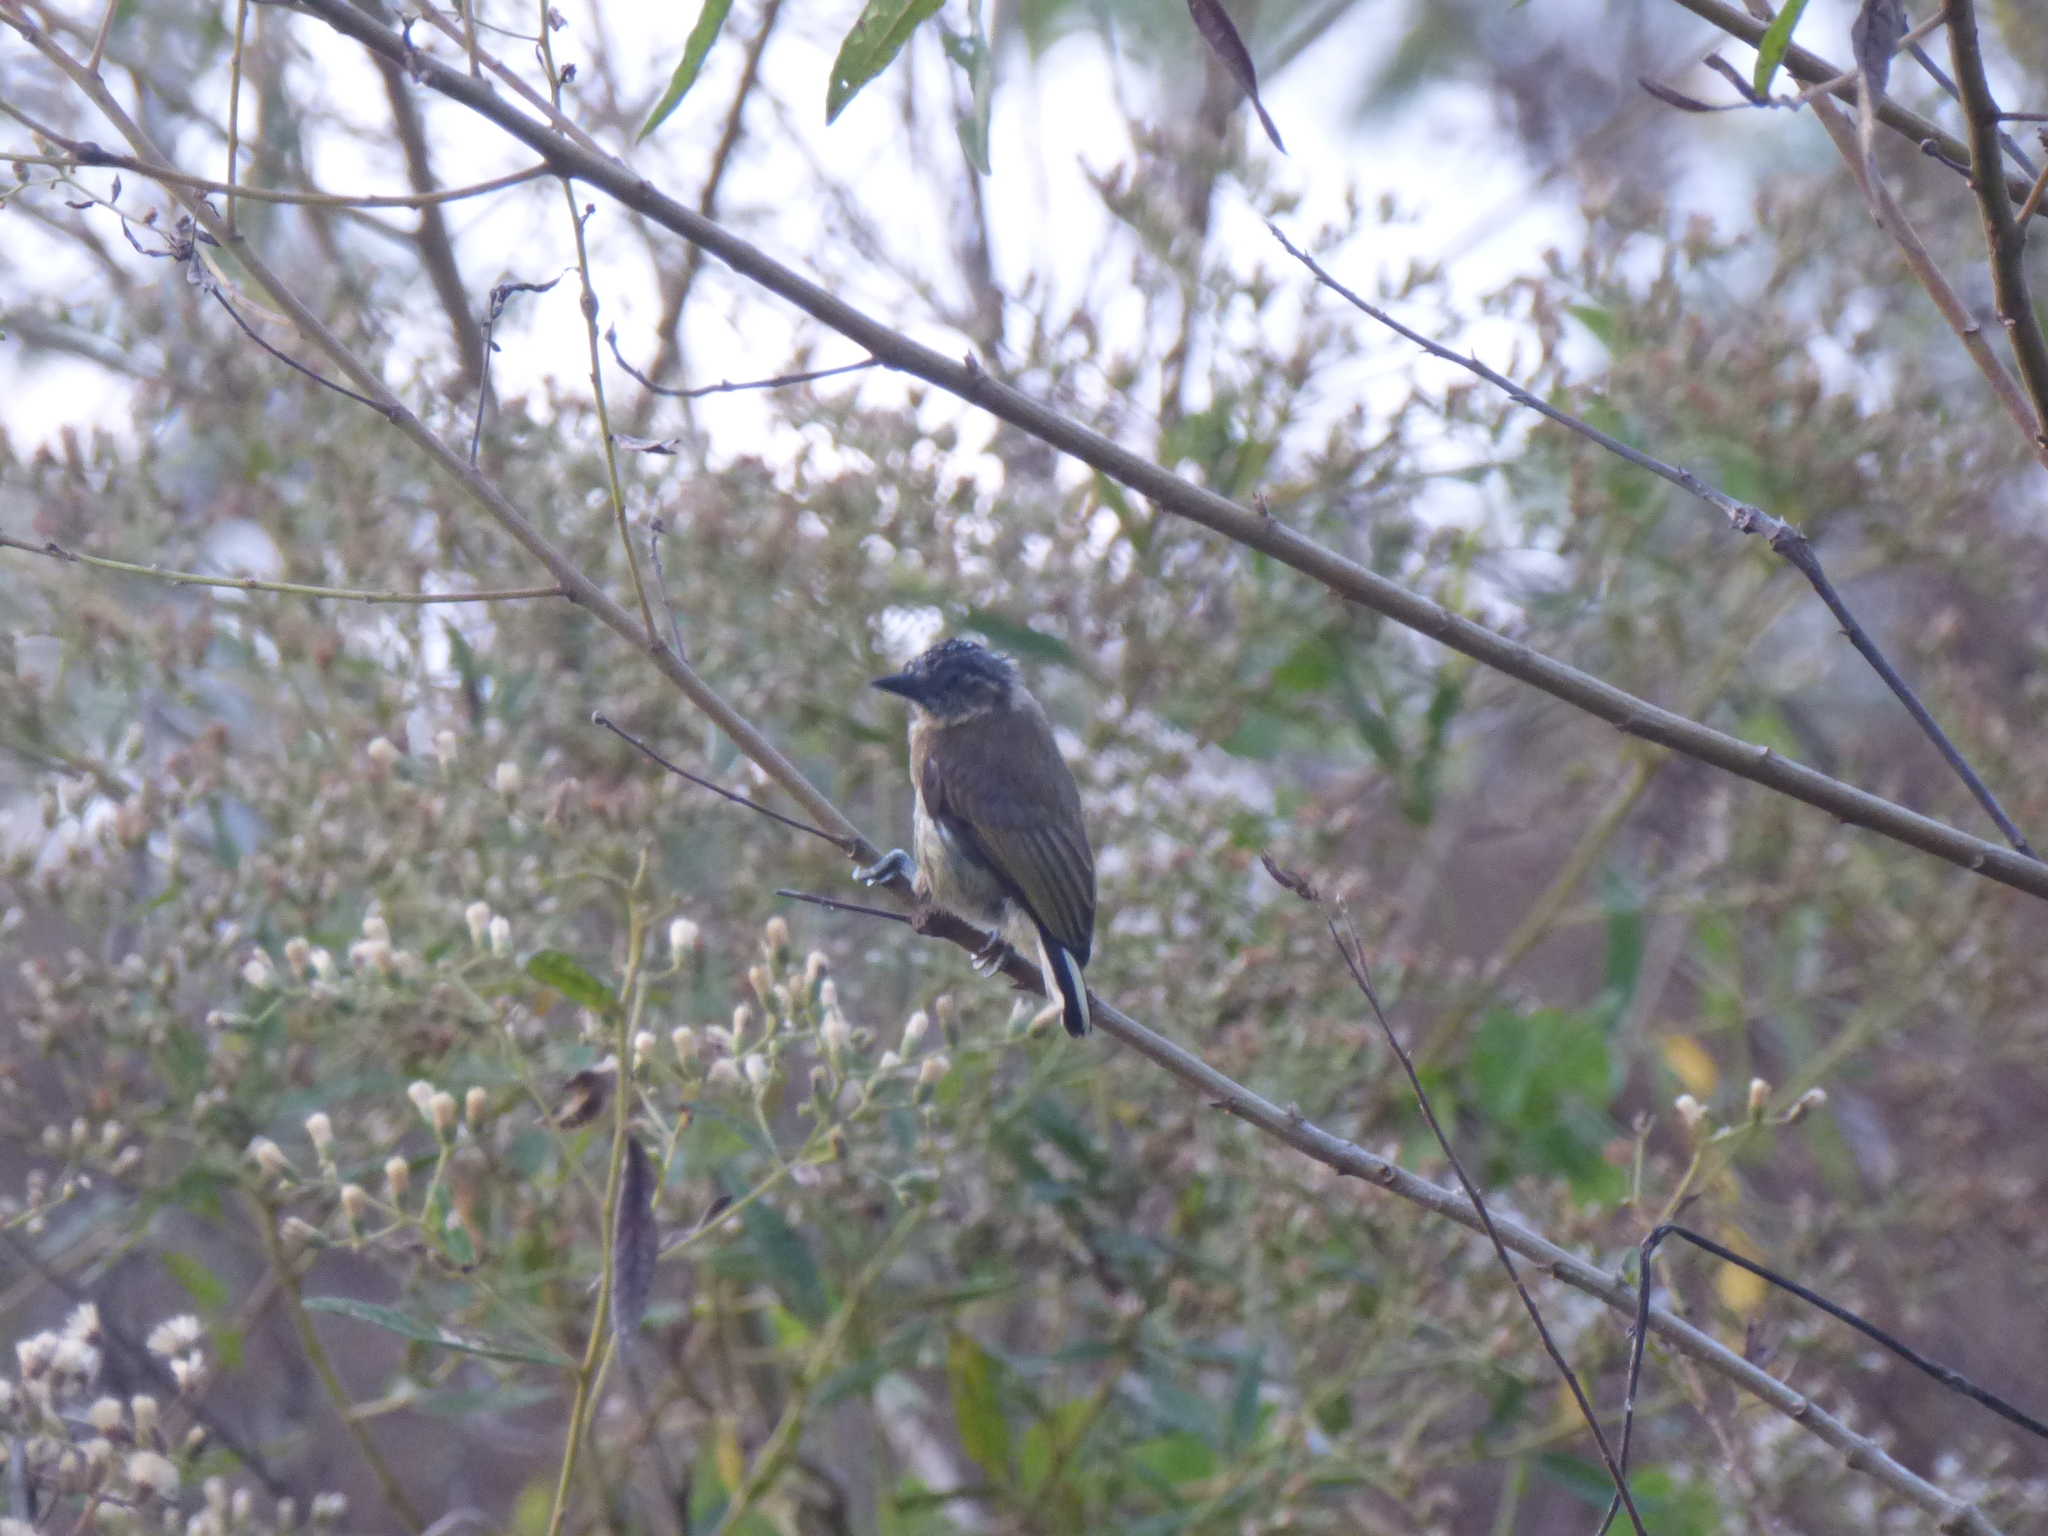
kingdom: Animalia
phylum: Chordata
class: Aves
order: Piciformes
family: Picidae
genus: Picumnus
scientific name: Picumnus olivaceus
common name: Olivaceous piculet
